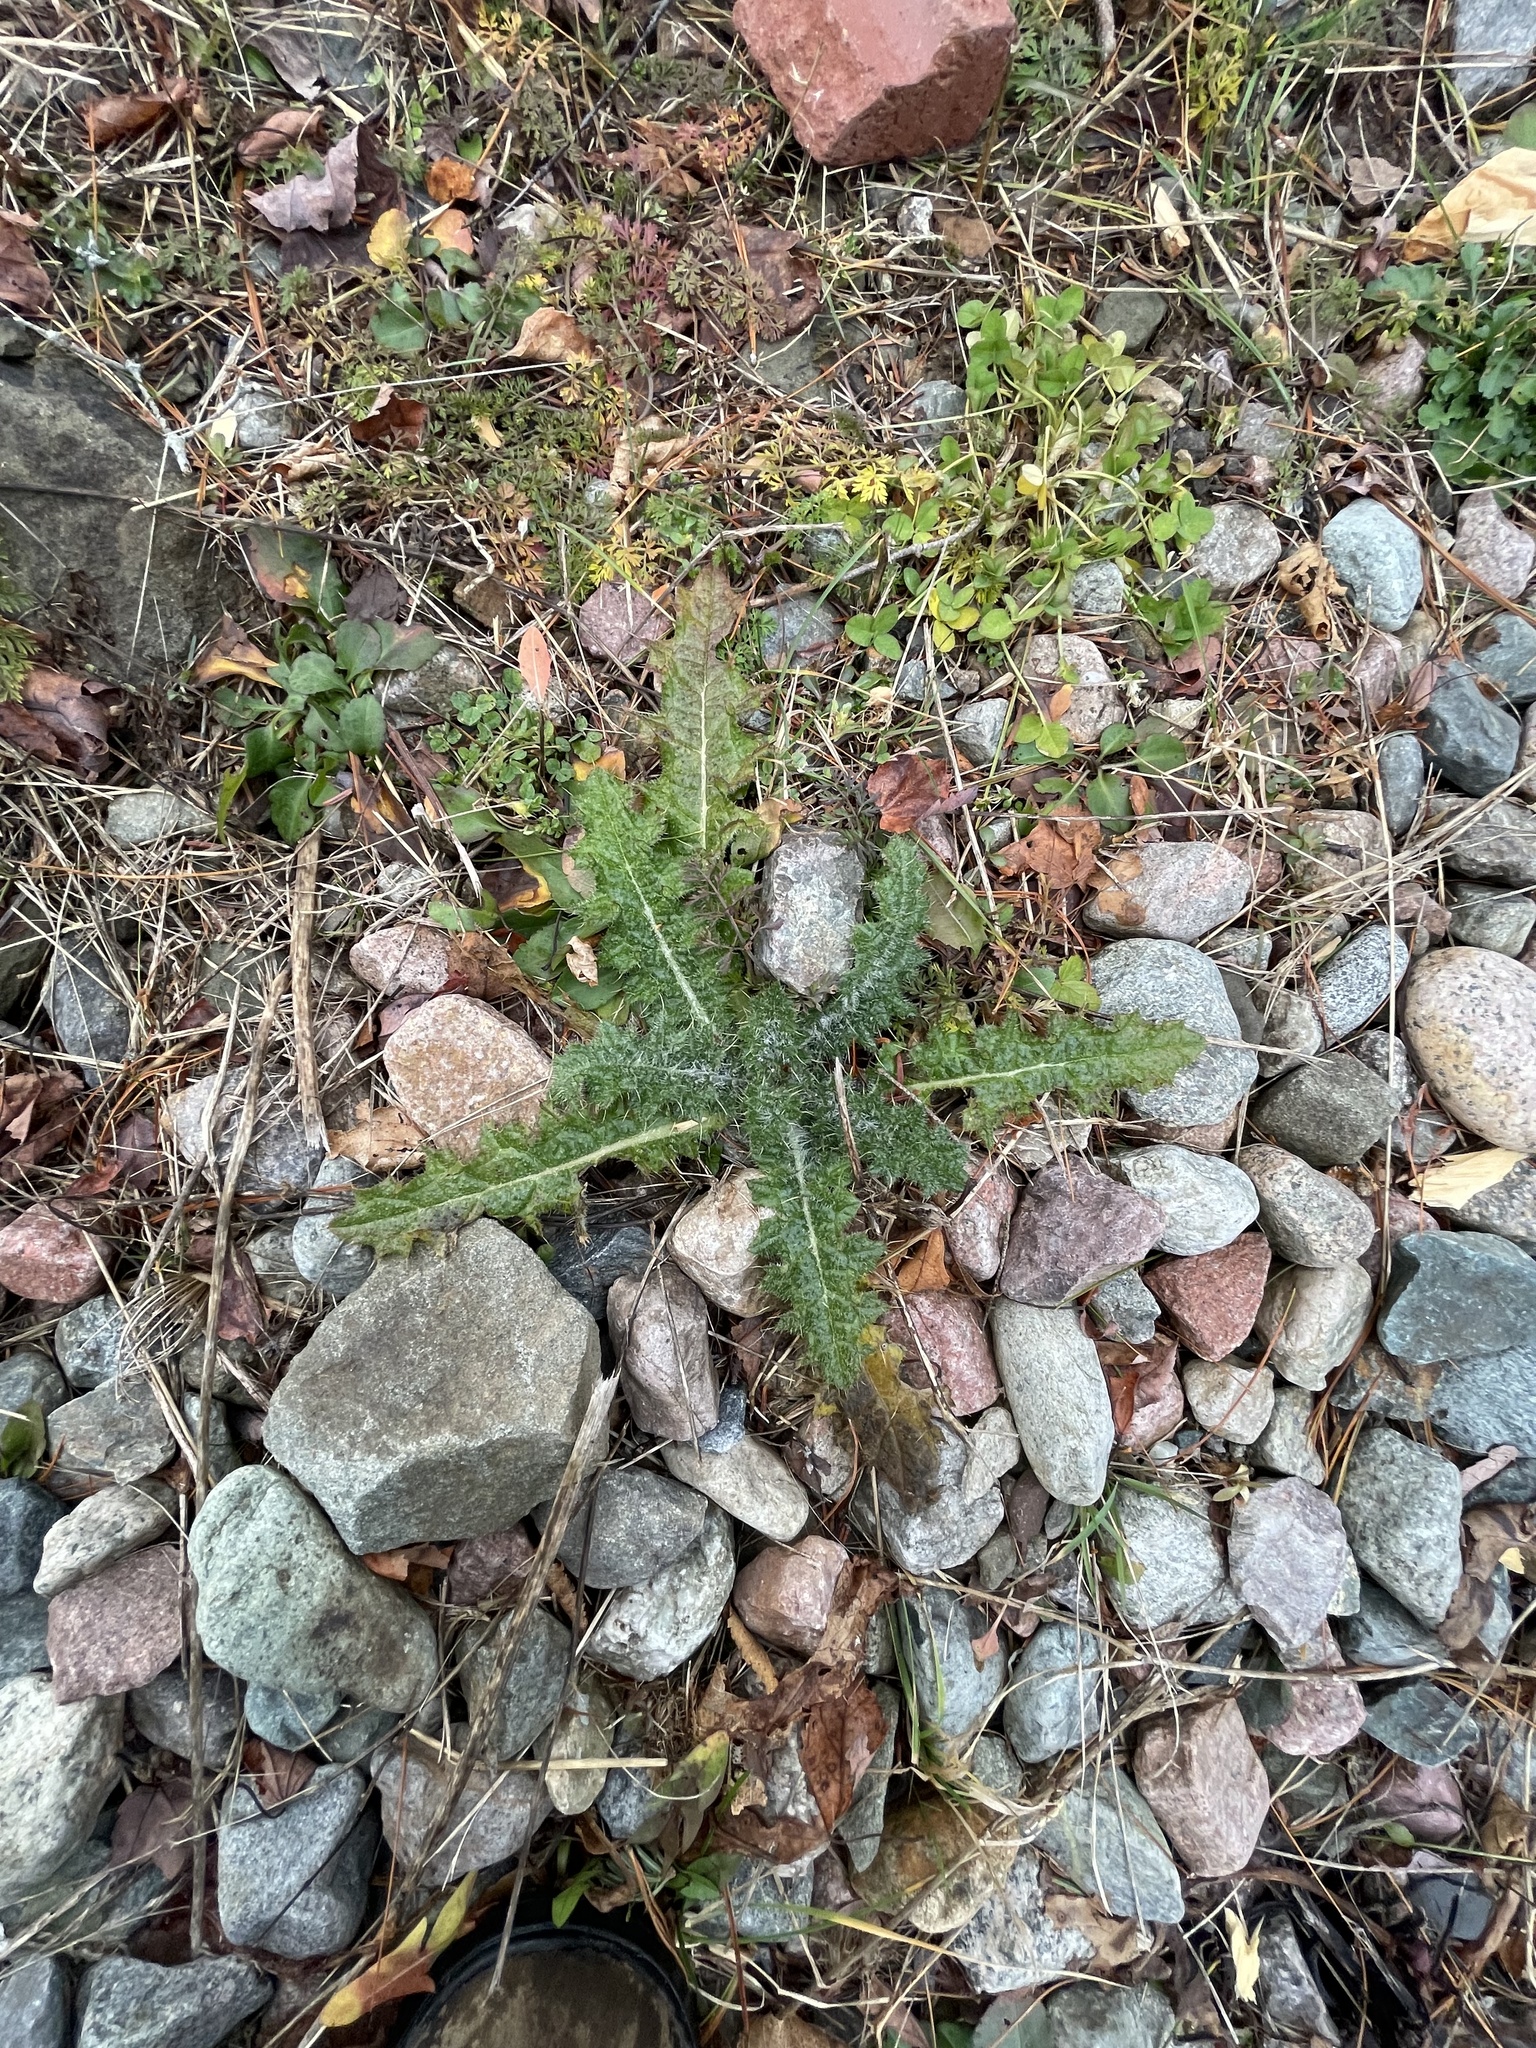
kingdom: Plantae
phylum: Tracheophyta
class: Magnoliopsida
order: Asterales
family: Asteraceae
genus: Cirsium
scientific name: Cirsium vulgare
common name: Bull thistle
